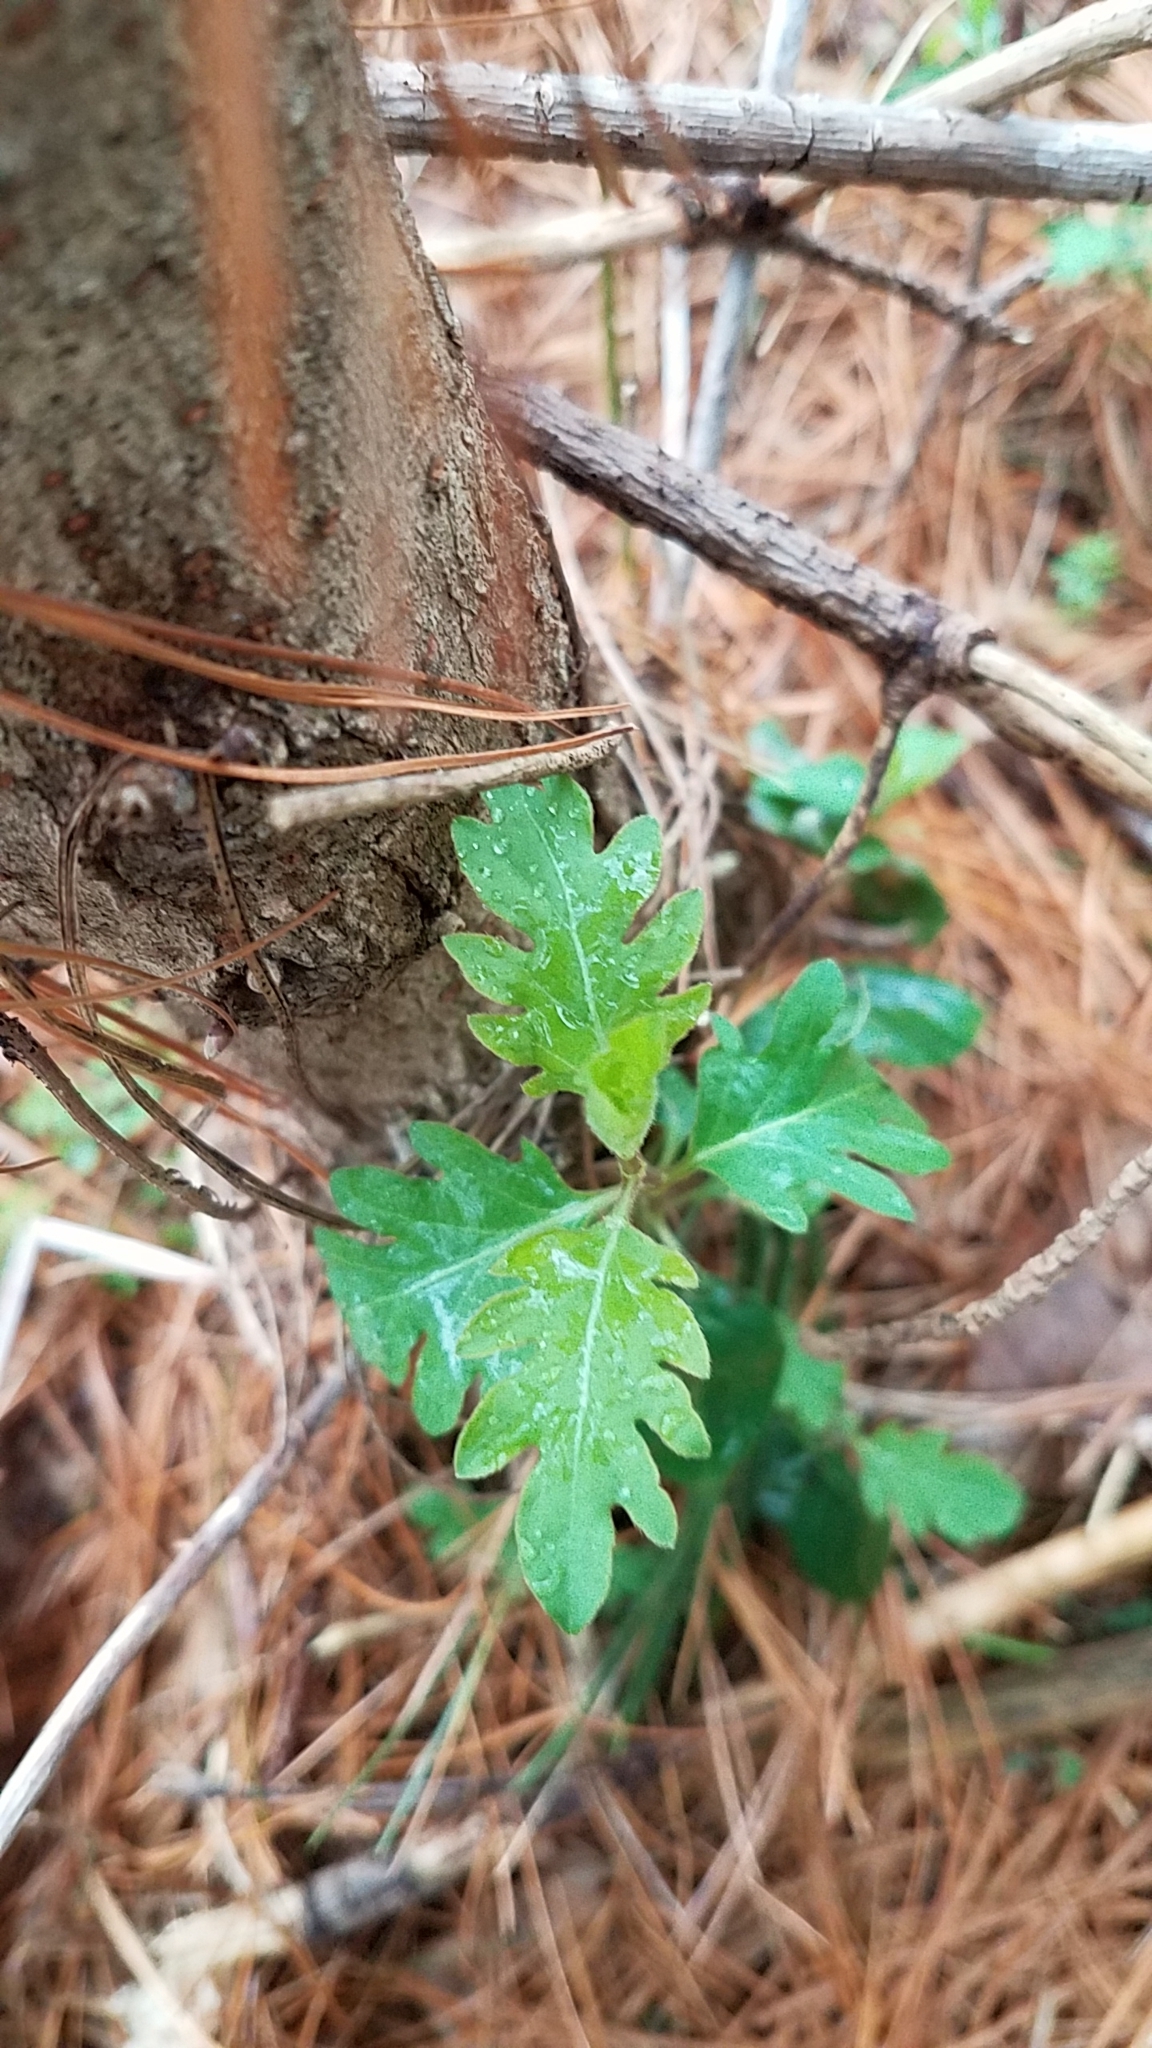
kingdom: Plantae
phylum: Tracheophyta
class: Magnoliopsida
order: Dipsacales
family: Caprifoliaceae
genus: Lonicera
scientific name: Lonicera japonica
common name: Japanese honeysuckle
